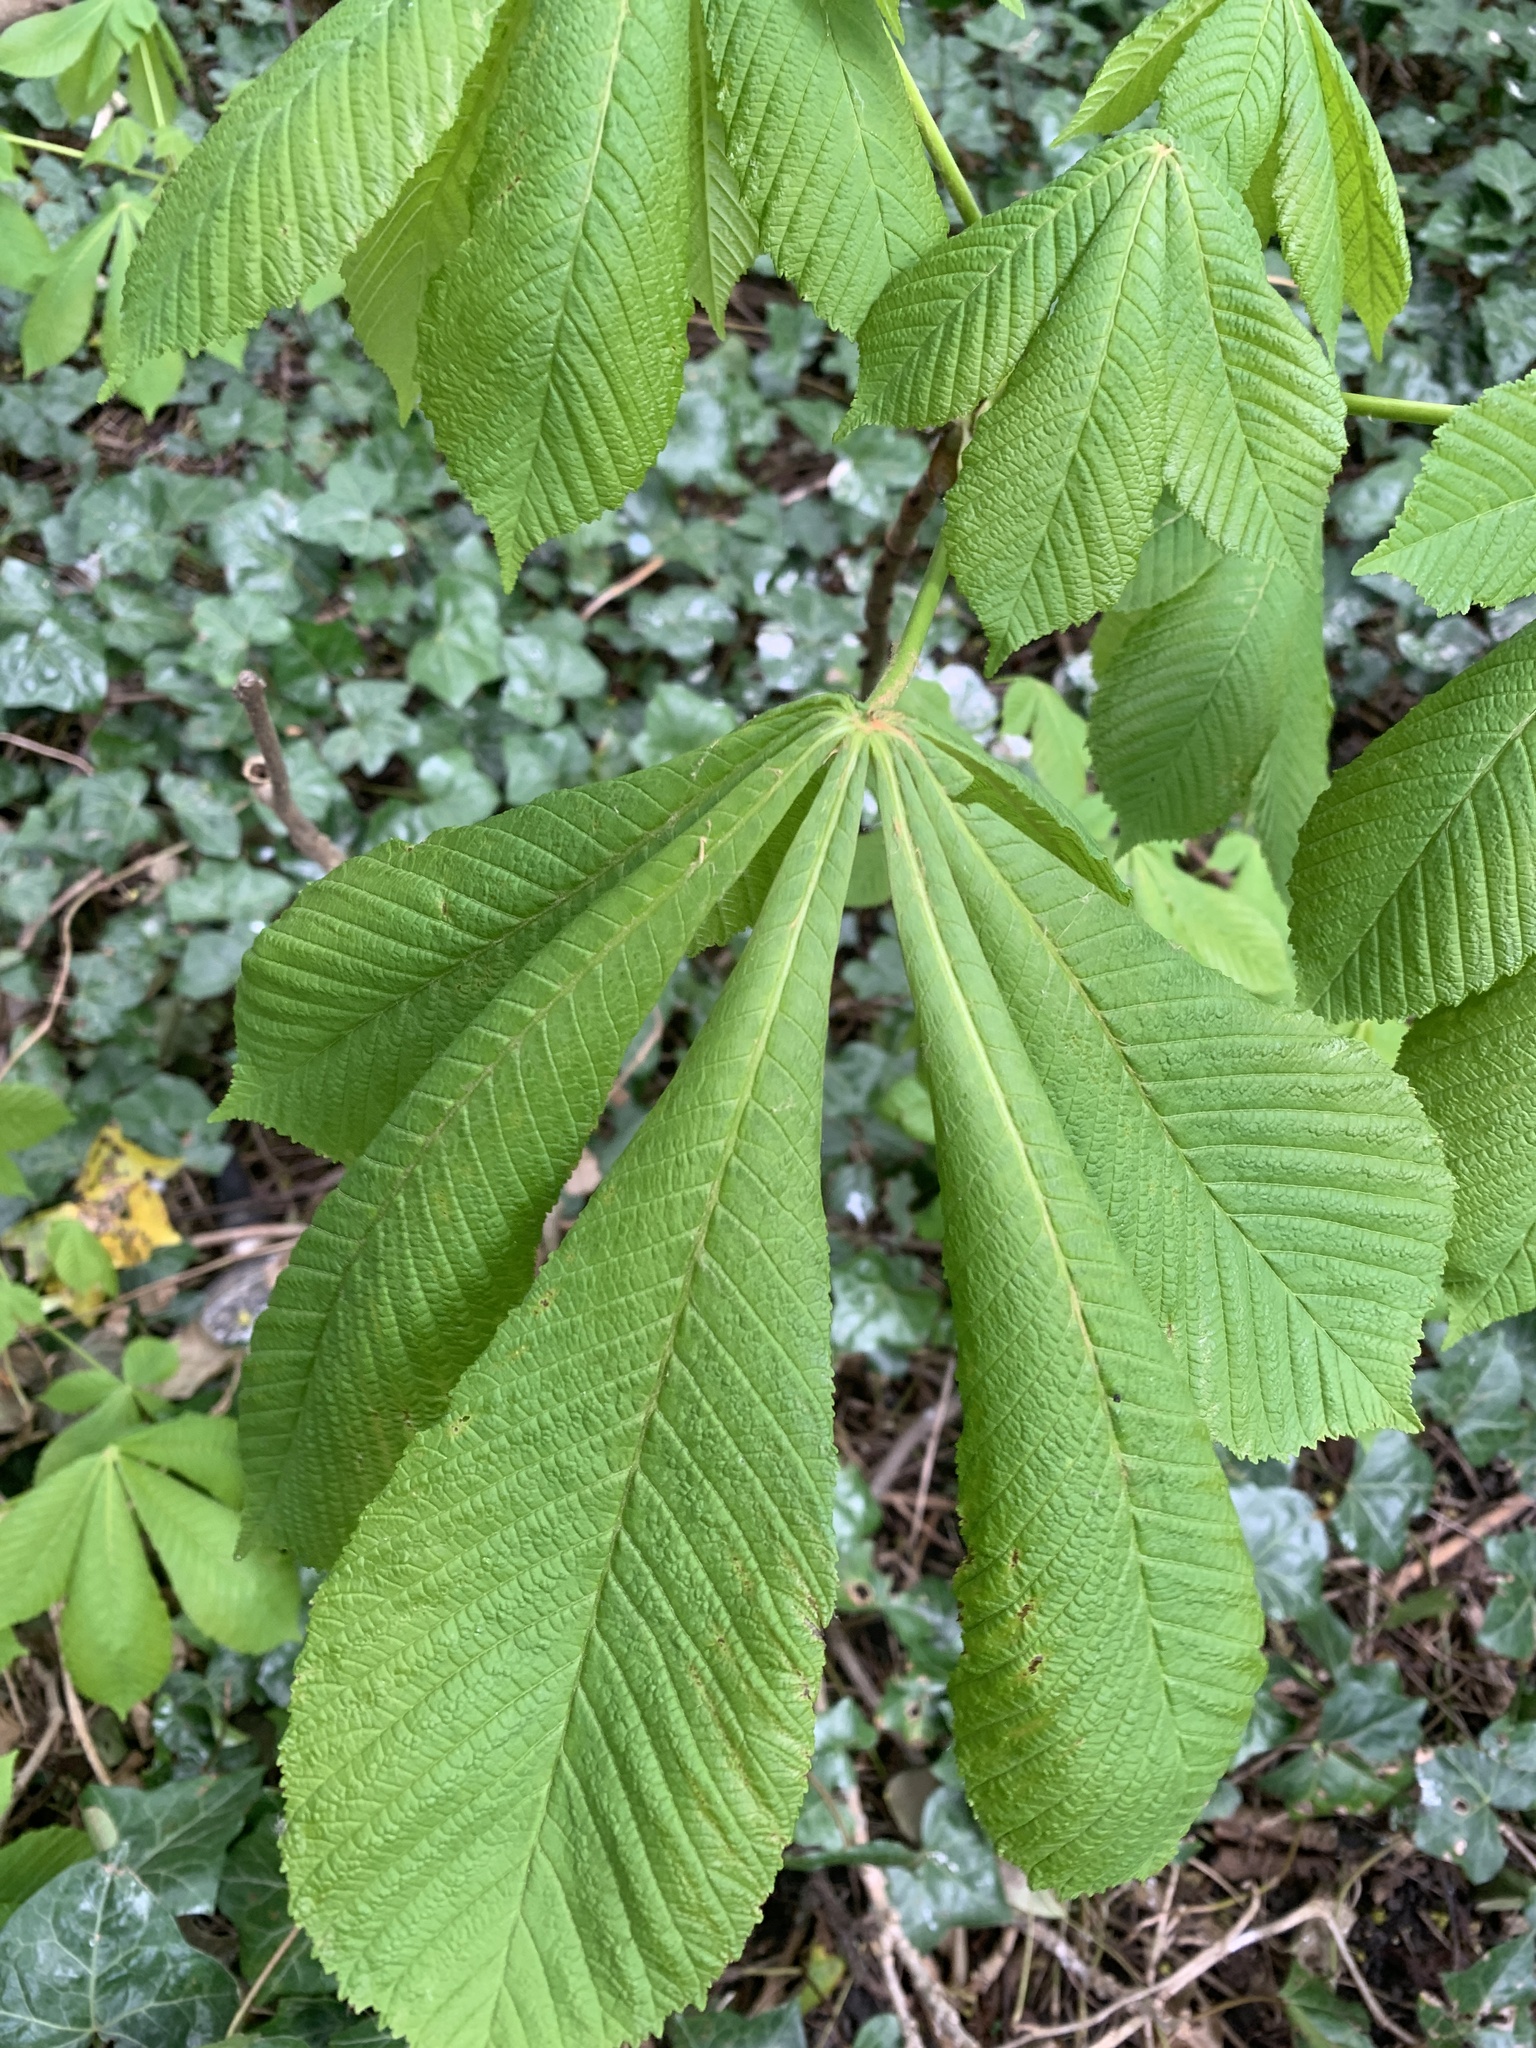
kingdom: Plantae
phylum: Tracheophyta
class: Magnoliopsida
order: Sapindales
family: Sapindaceae
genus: Aesculus
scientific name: Aesculus hippocastanum
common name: Horse-chestnut
